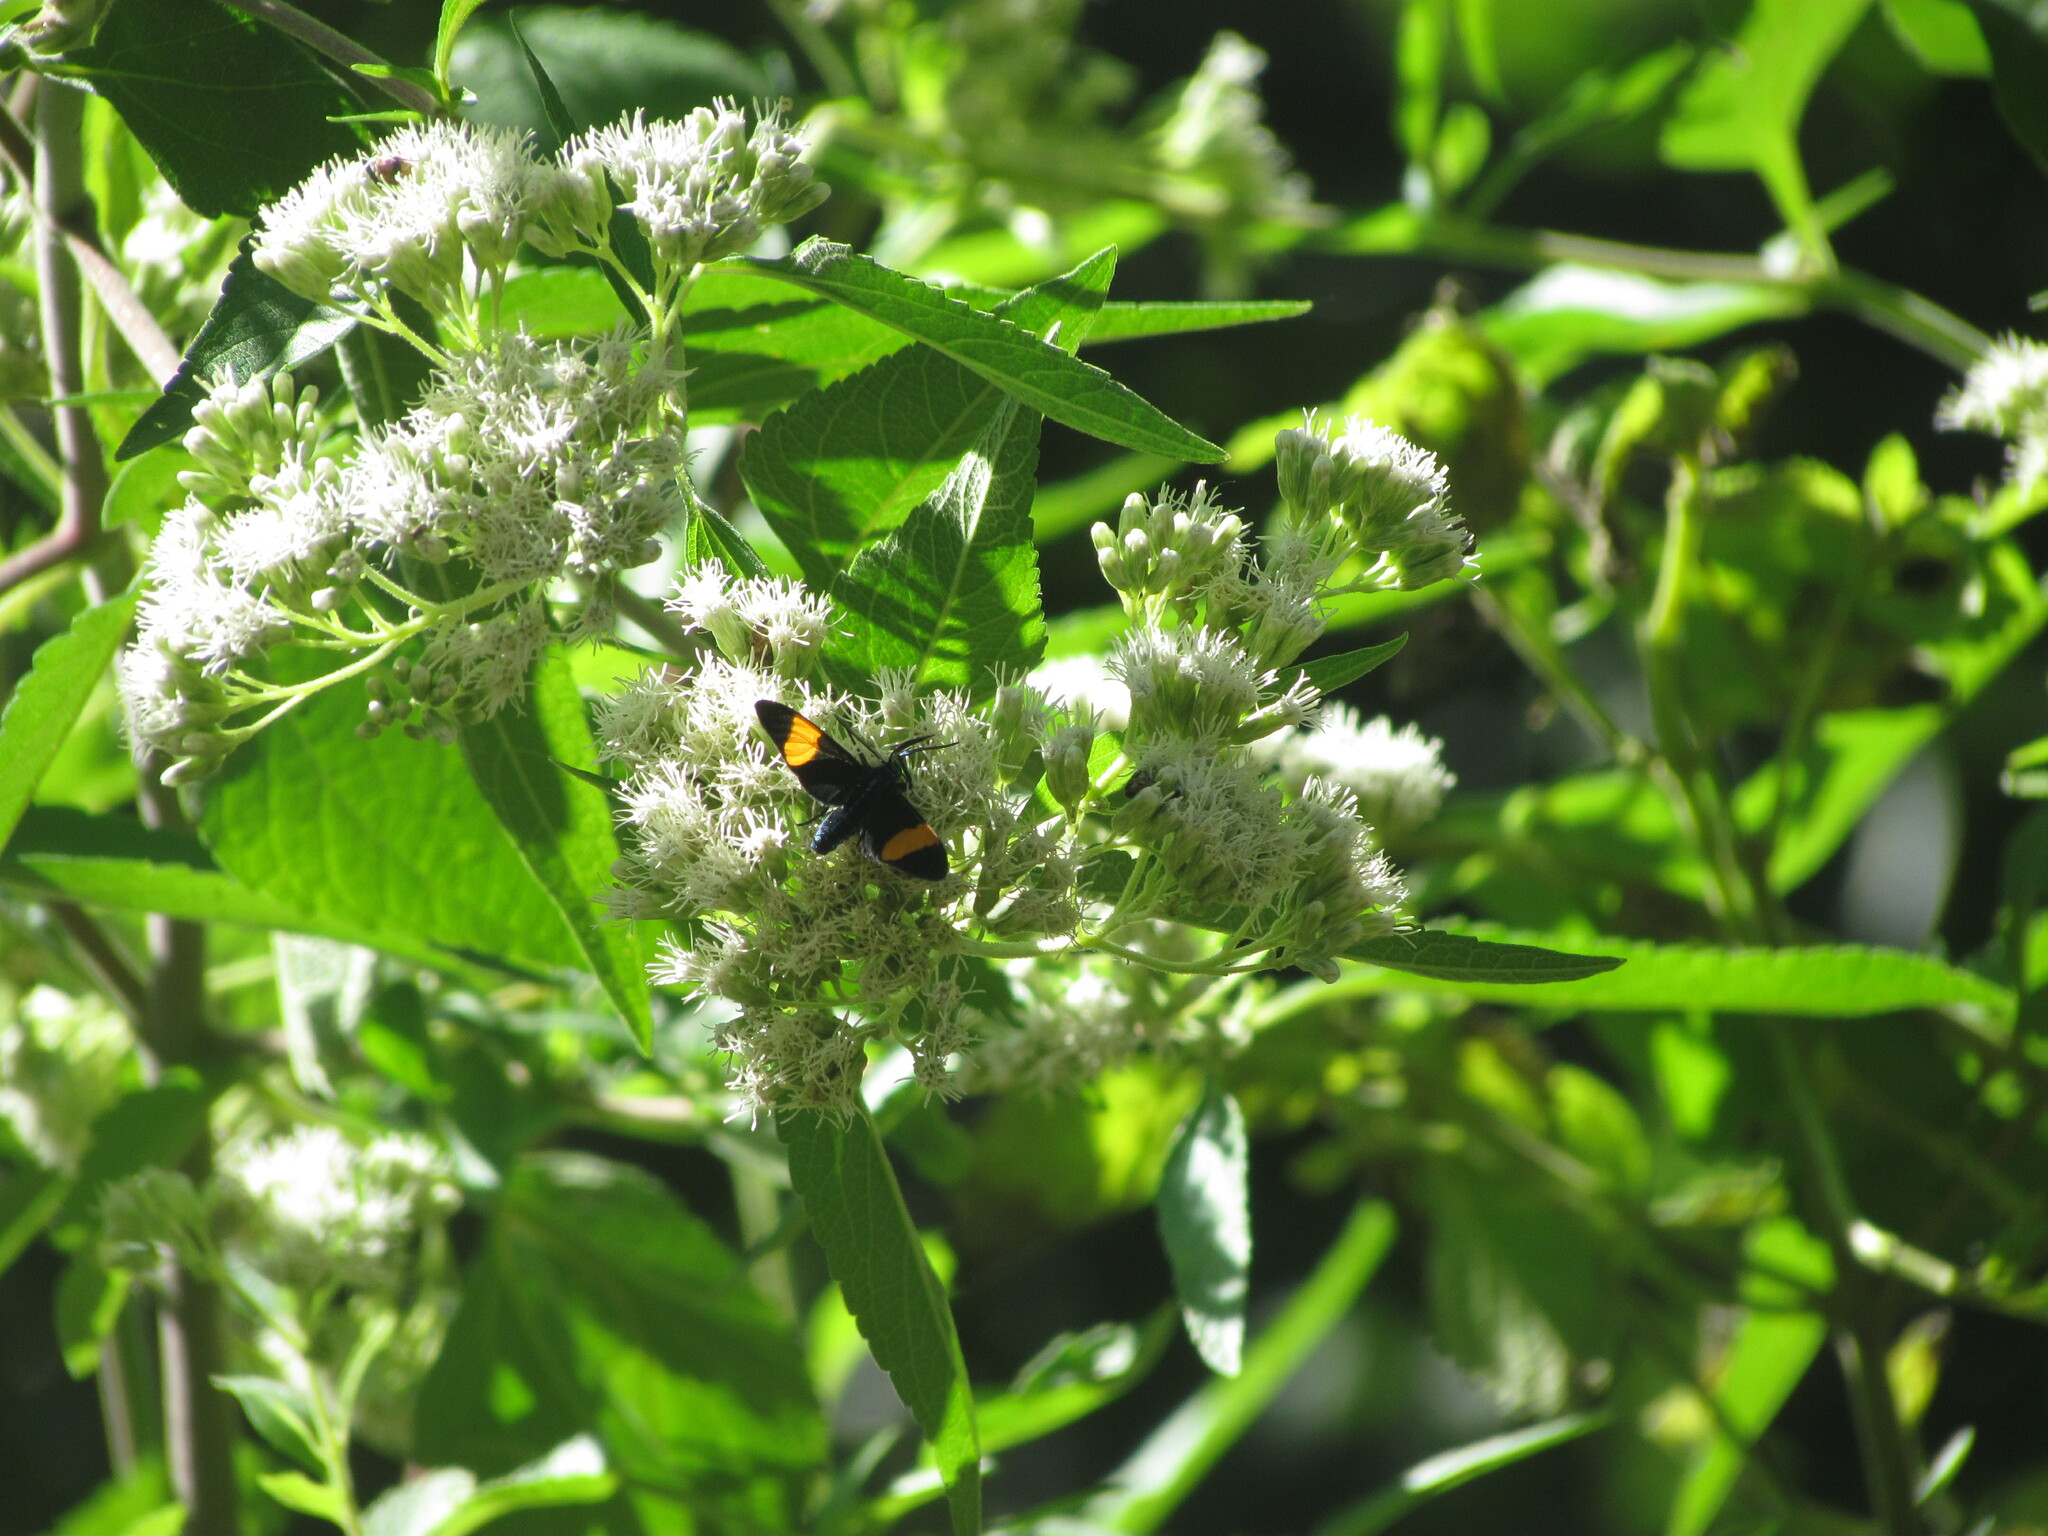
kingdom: Animalia
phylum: Arthropoda
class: Insecta
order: Lepidoptera
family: Erebidae
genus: Cyanopepla
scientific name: Cyanopepla similis
